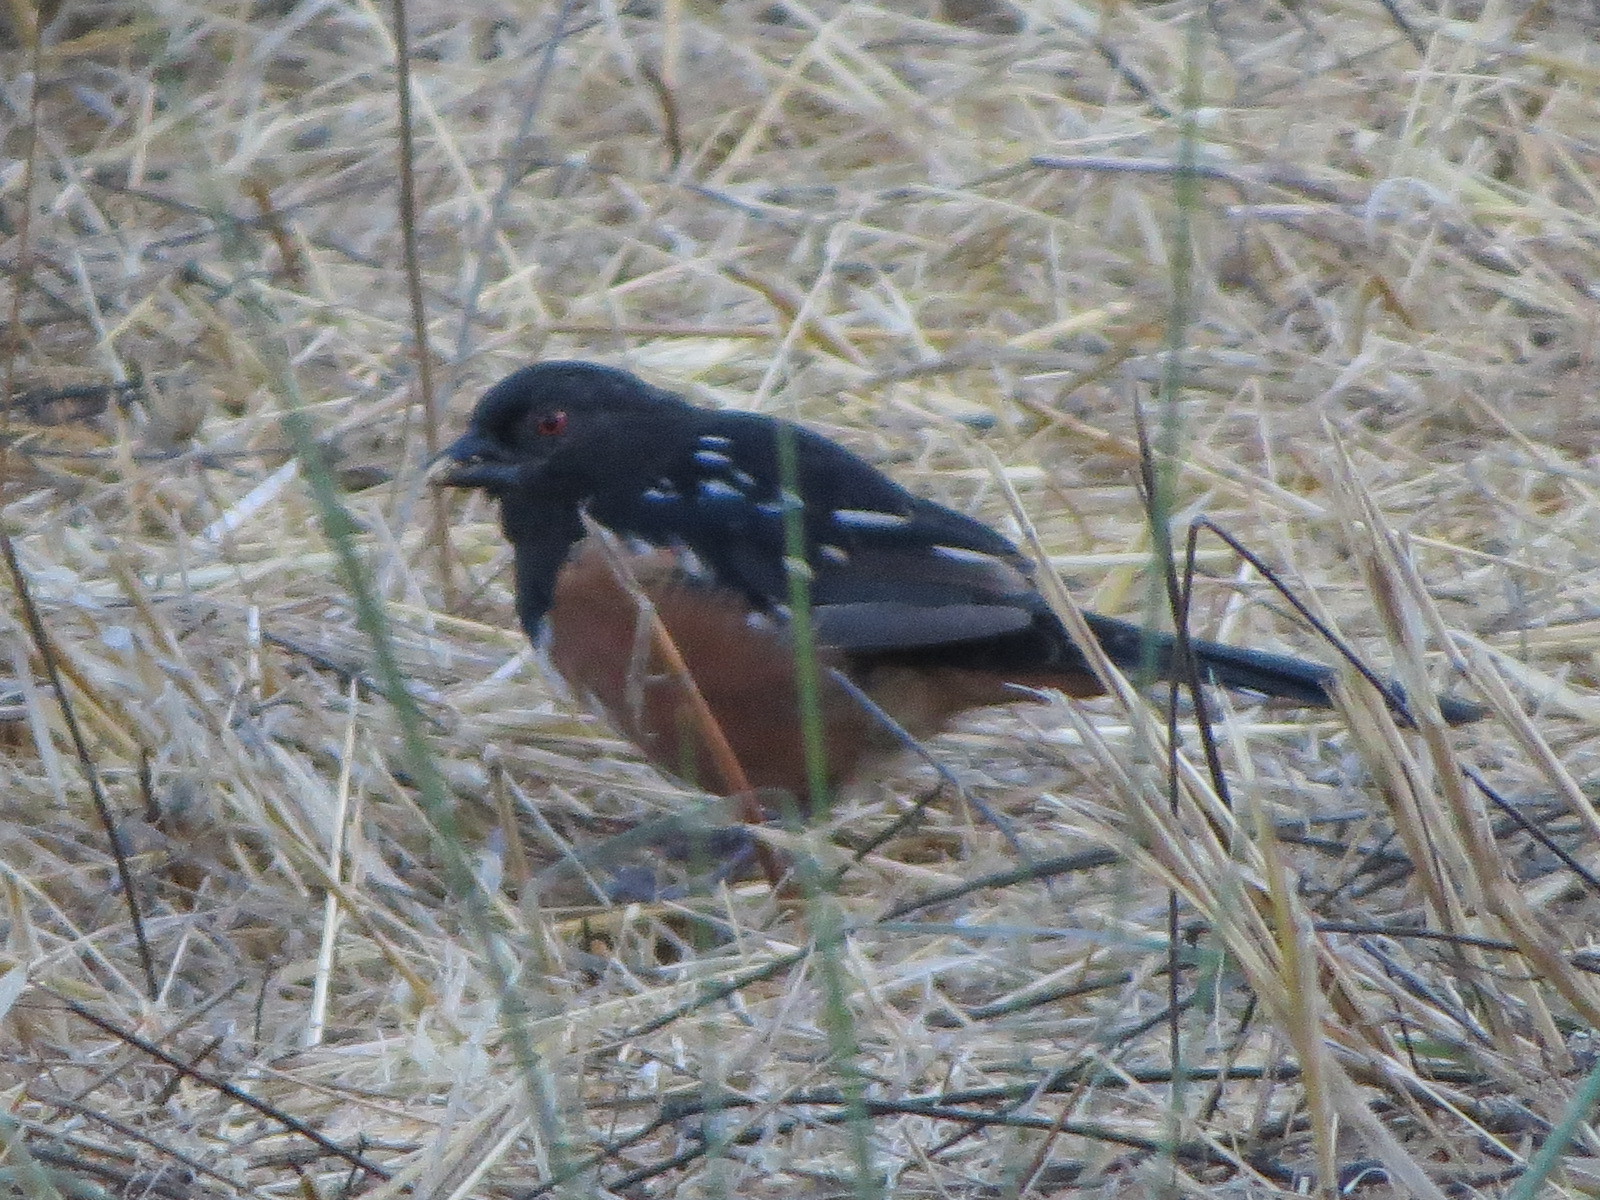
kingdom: Animalia
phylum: Chordata
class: Aves
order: Passeriformes
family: Passerellidae
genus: Pipilo
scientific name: Pipilo maculatus
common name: Spotted towhee
